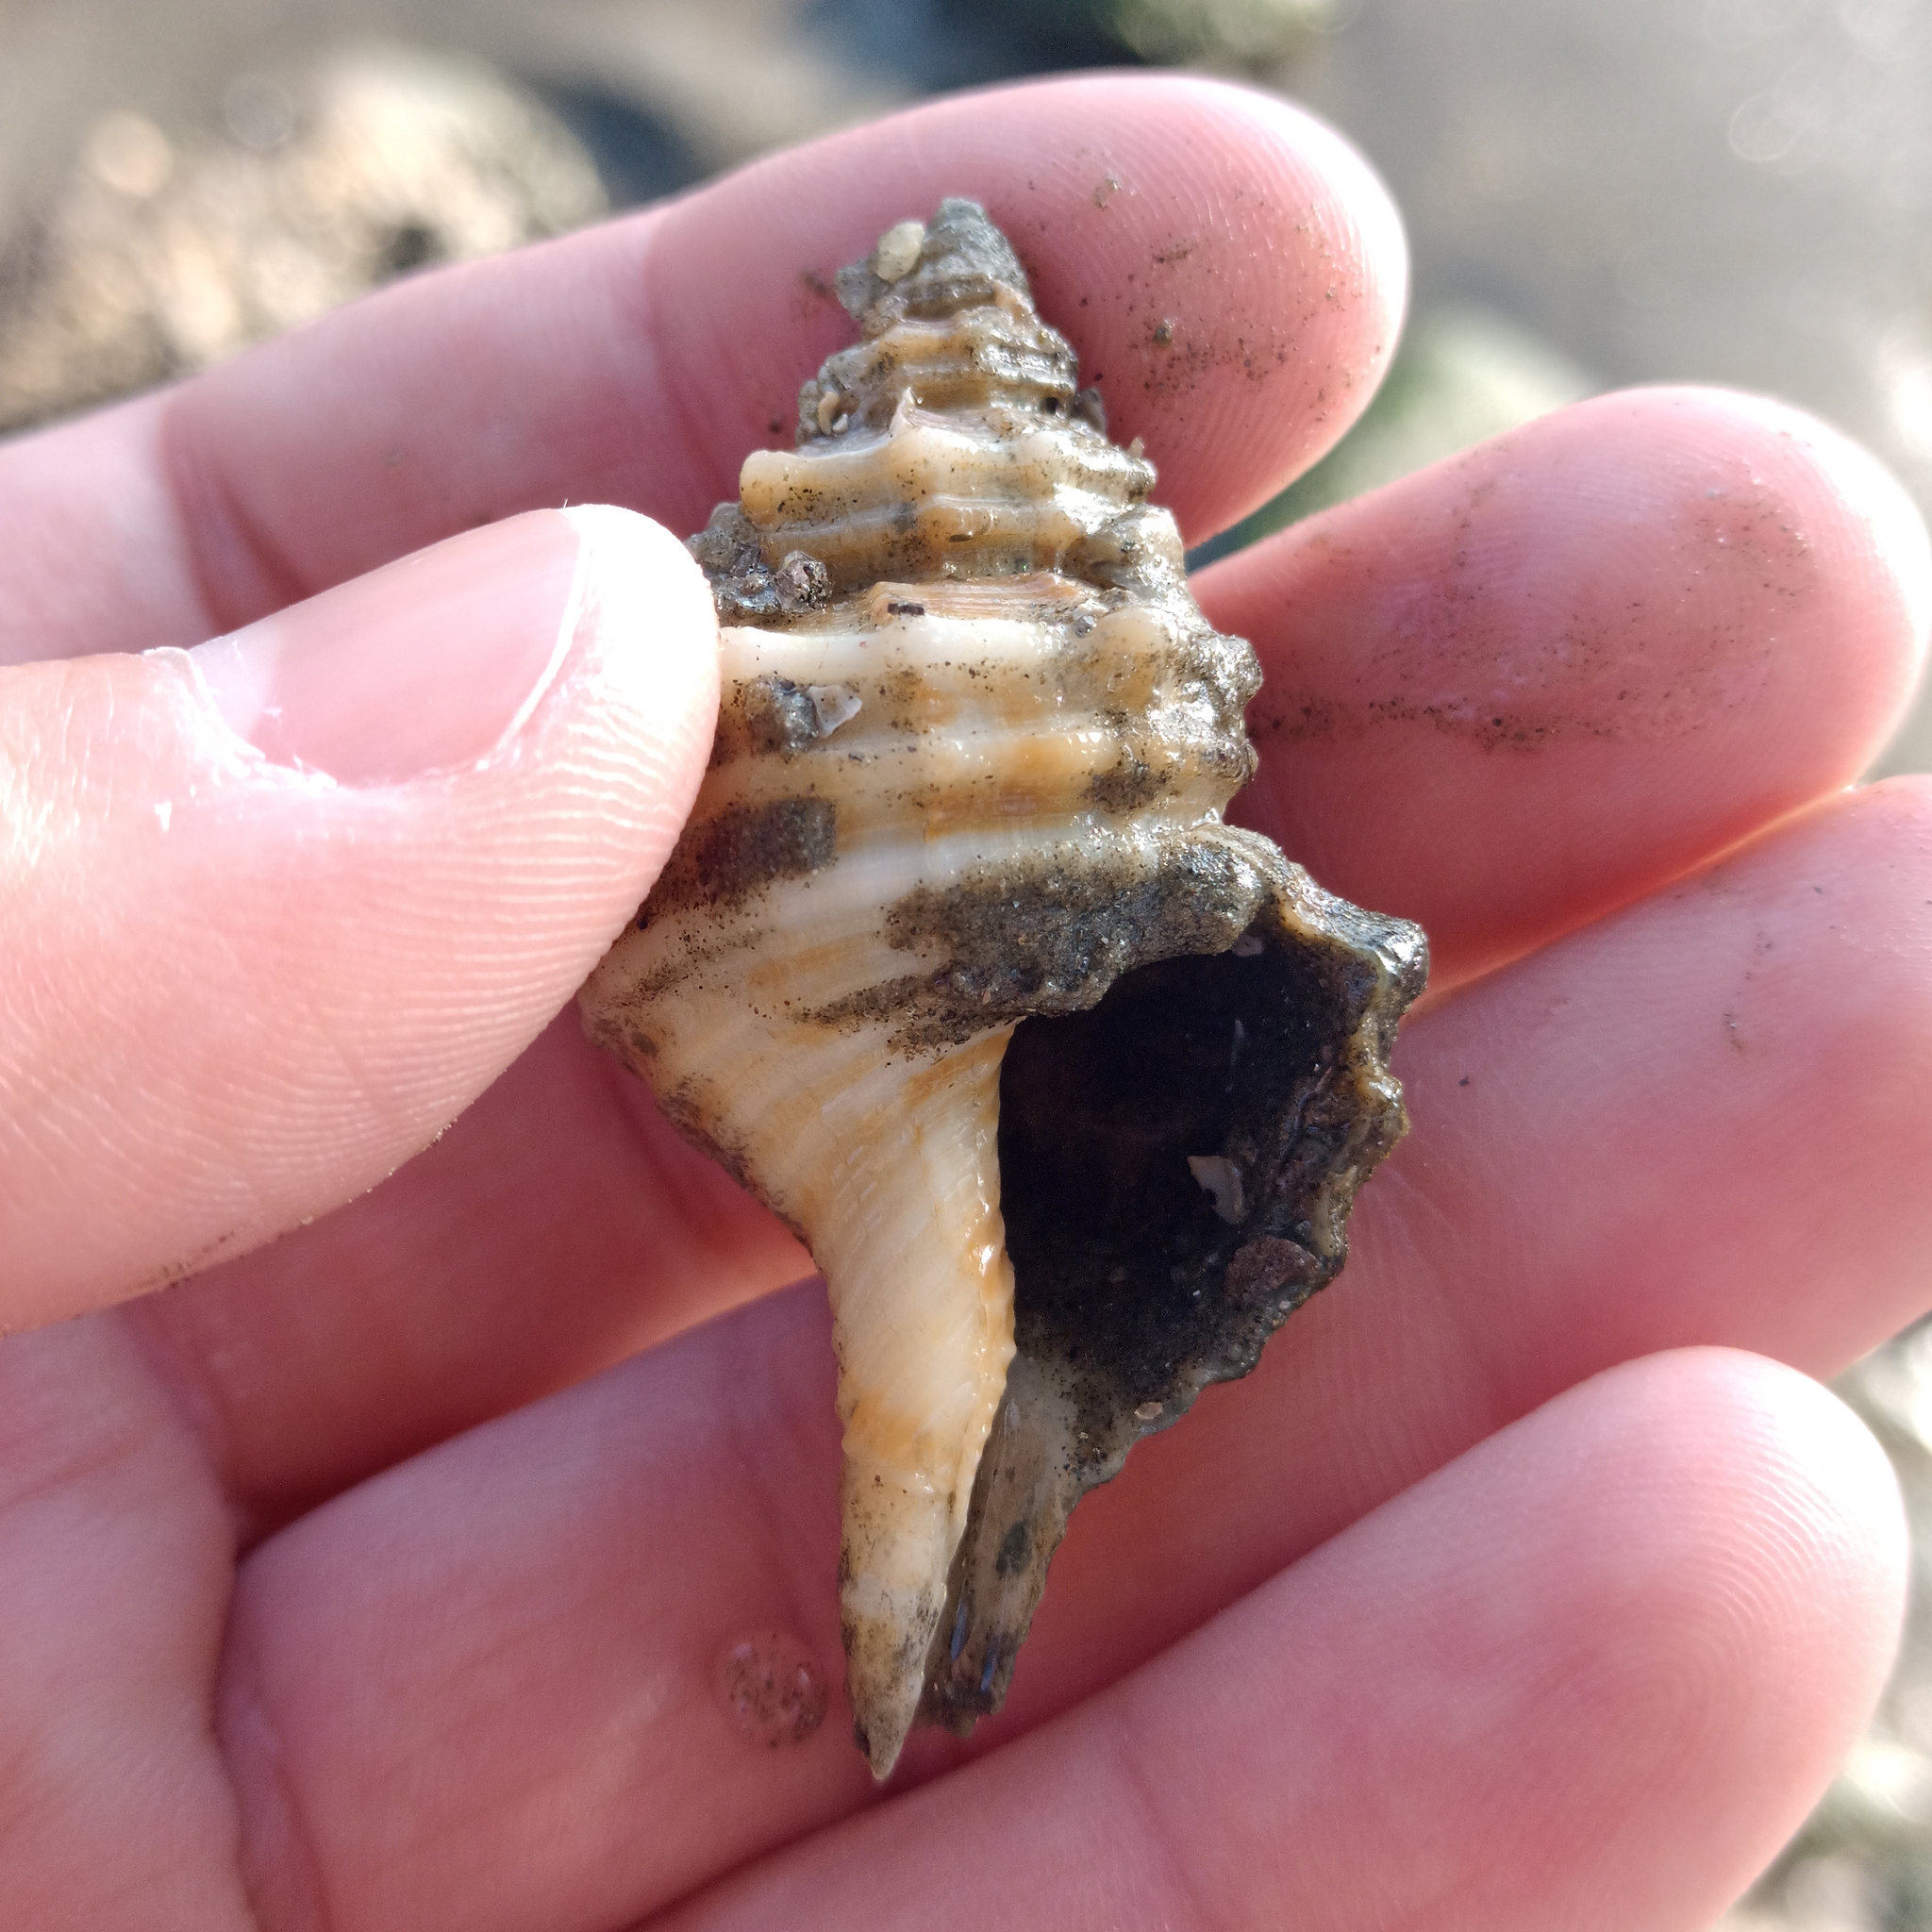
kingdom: Animalia
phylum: Mollusca
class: Gastropoda
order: Littorinimorpha
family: Cymatiidae
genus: Monoplex
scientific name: Monoplex parthenopeus
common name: Giant triton
